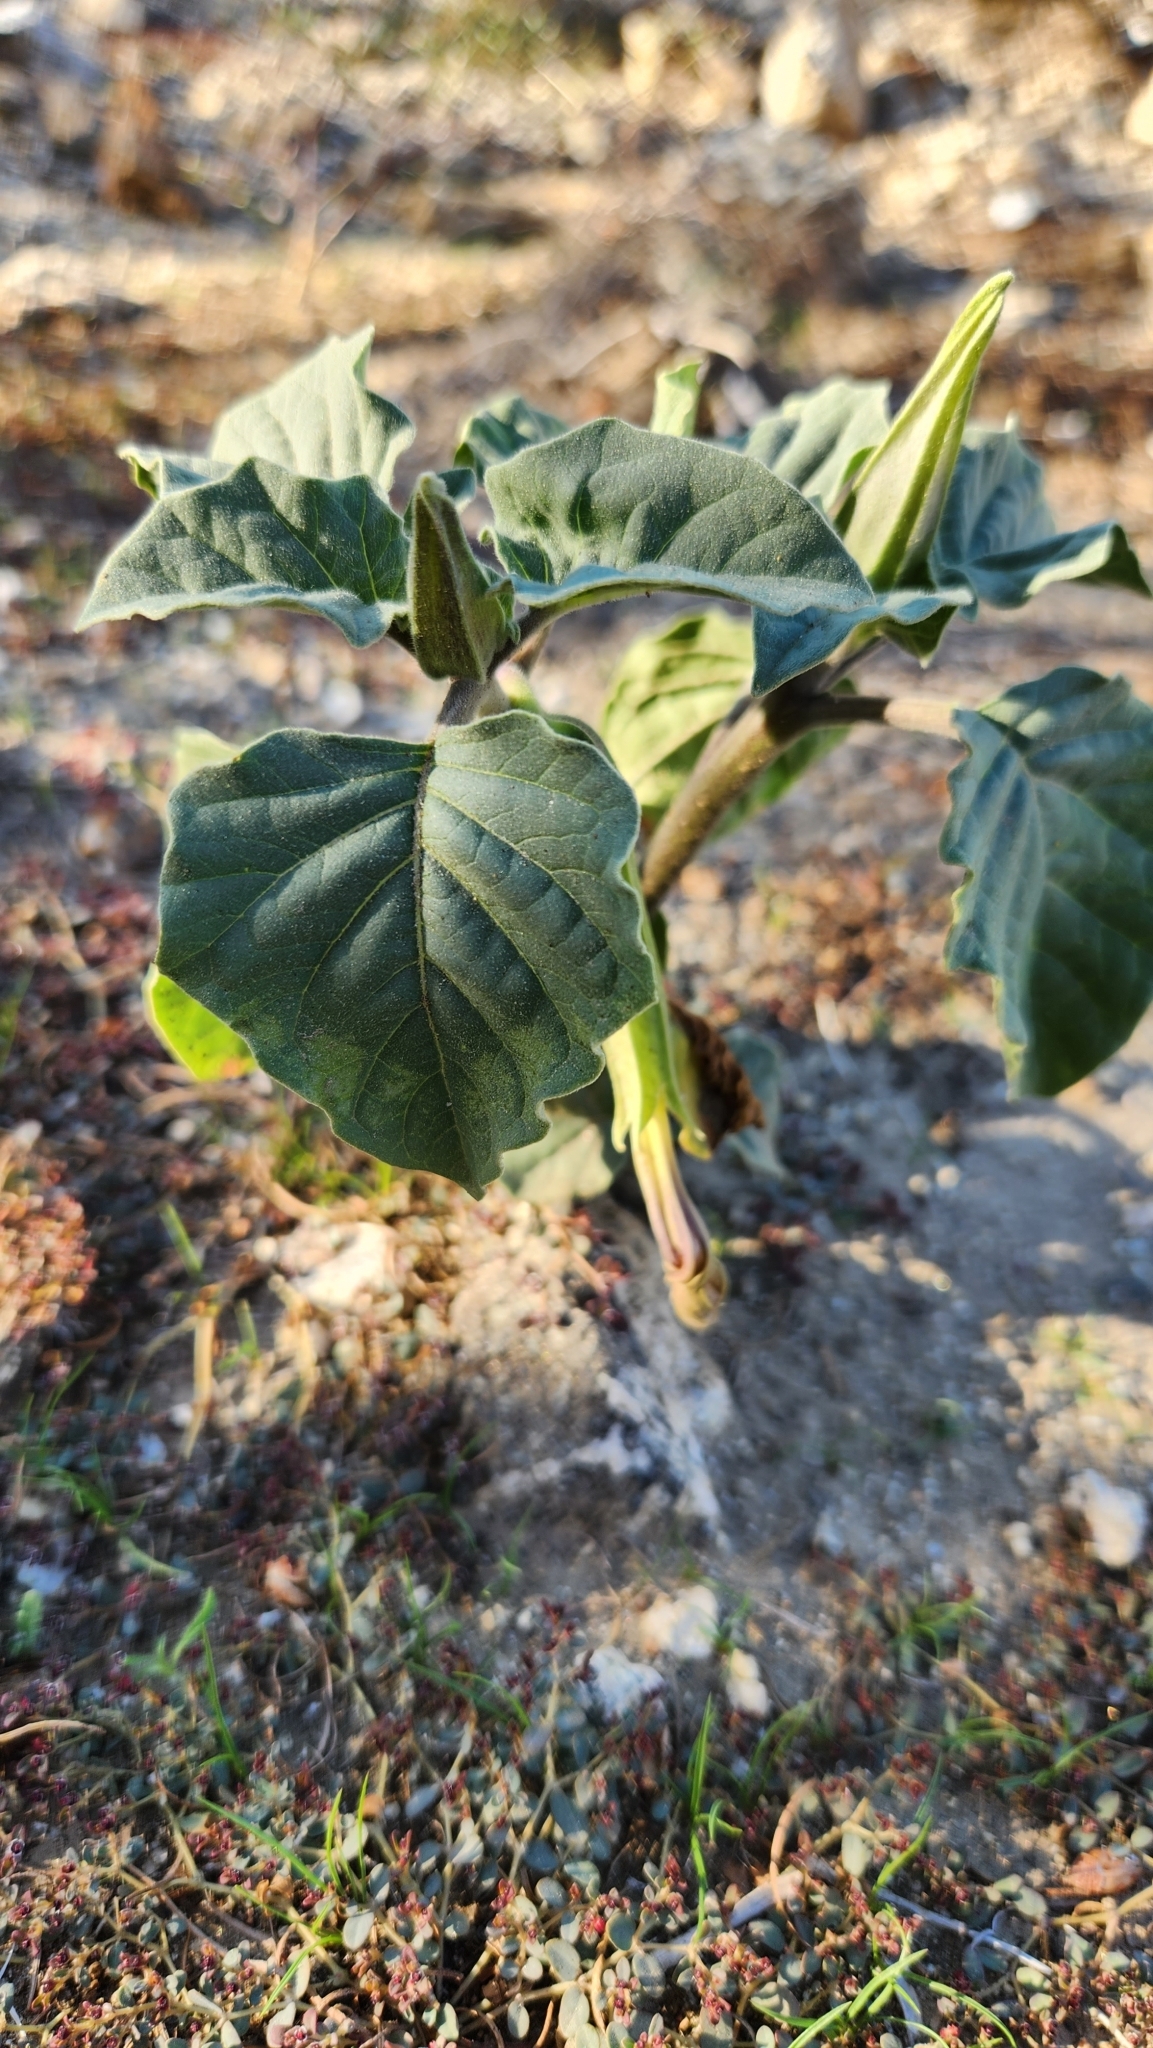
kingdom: Plantae
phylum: Tracheophyta
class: Magnoliopsida
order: Solanales
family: Solanaceae
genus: Datura
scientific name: Datura discolor
